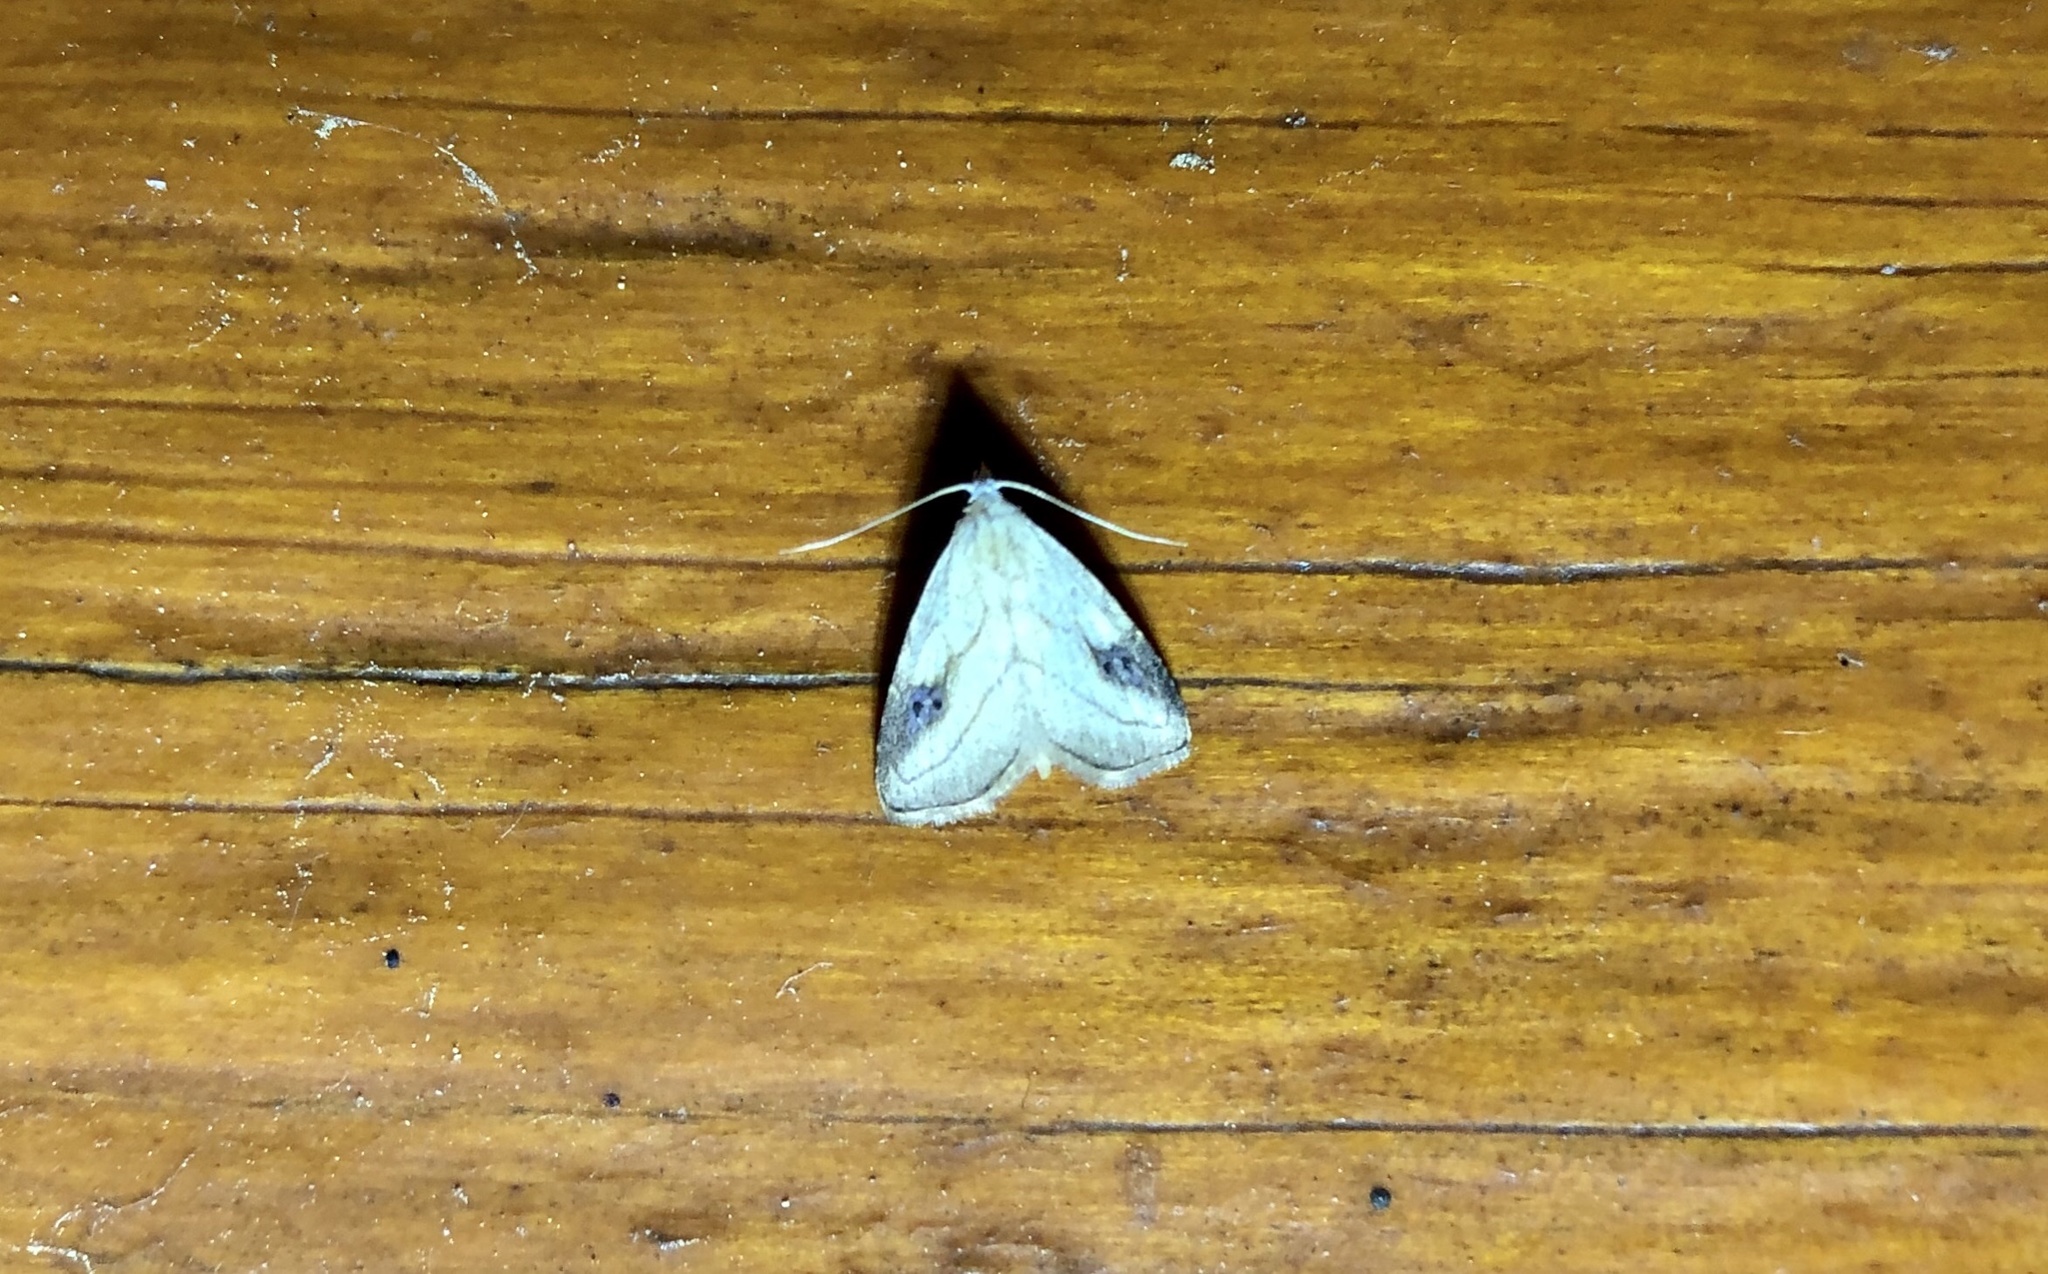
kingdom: Animalia
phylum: Arthropoda
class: Insecta
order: Lepidoptera
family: Erebidae
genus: Rivula
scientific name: Rivula propinqualis
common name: Spotted grass moth
